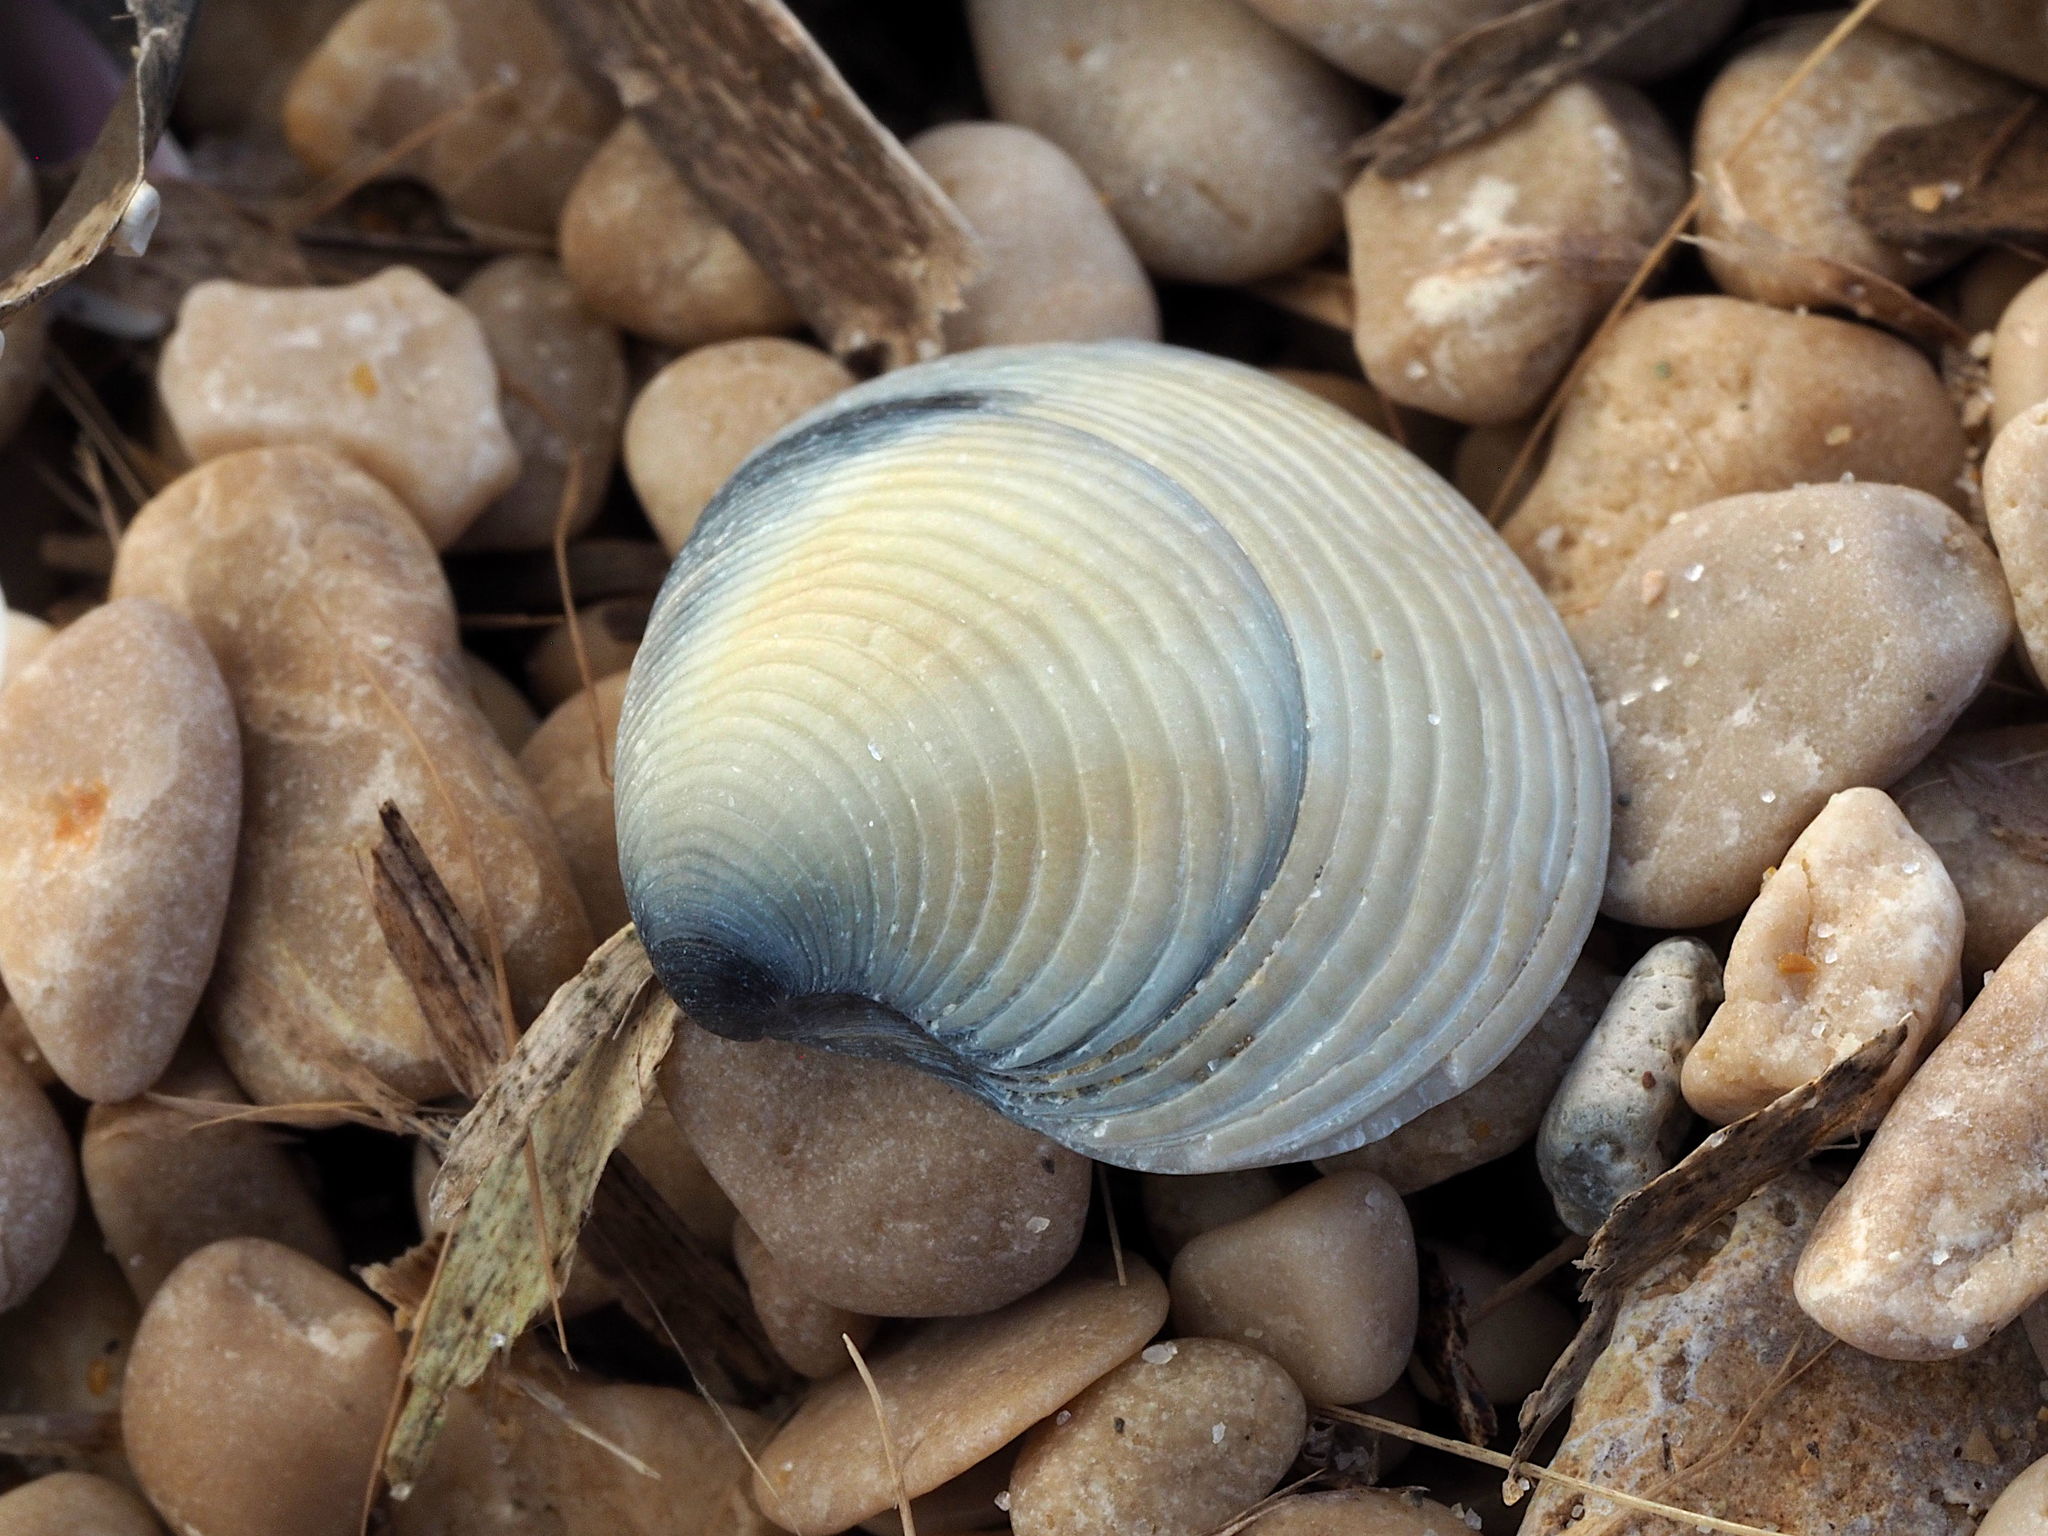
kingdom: Animalia
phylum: Mollusca
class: Bivalvia
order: Venerida
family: Veneridae
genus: Chamelea
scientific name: Chamelea gallina
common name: Chicken venus
